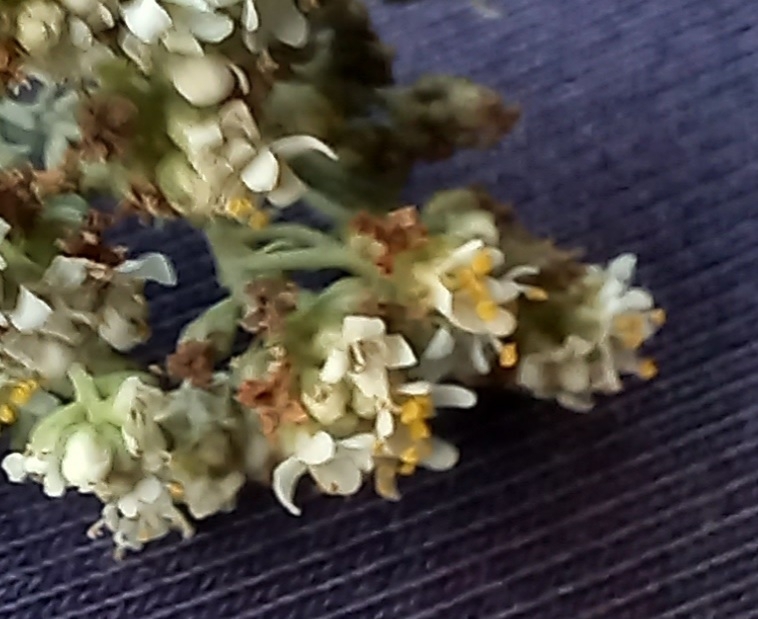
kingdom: Plantae
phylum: Tracheophyta
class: Magnoliopsida
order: Lamiales
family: Scrophulariaceae
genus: Selago
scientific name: Selago glomerata
